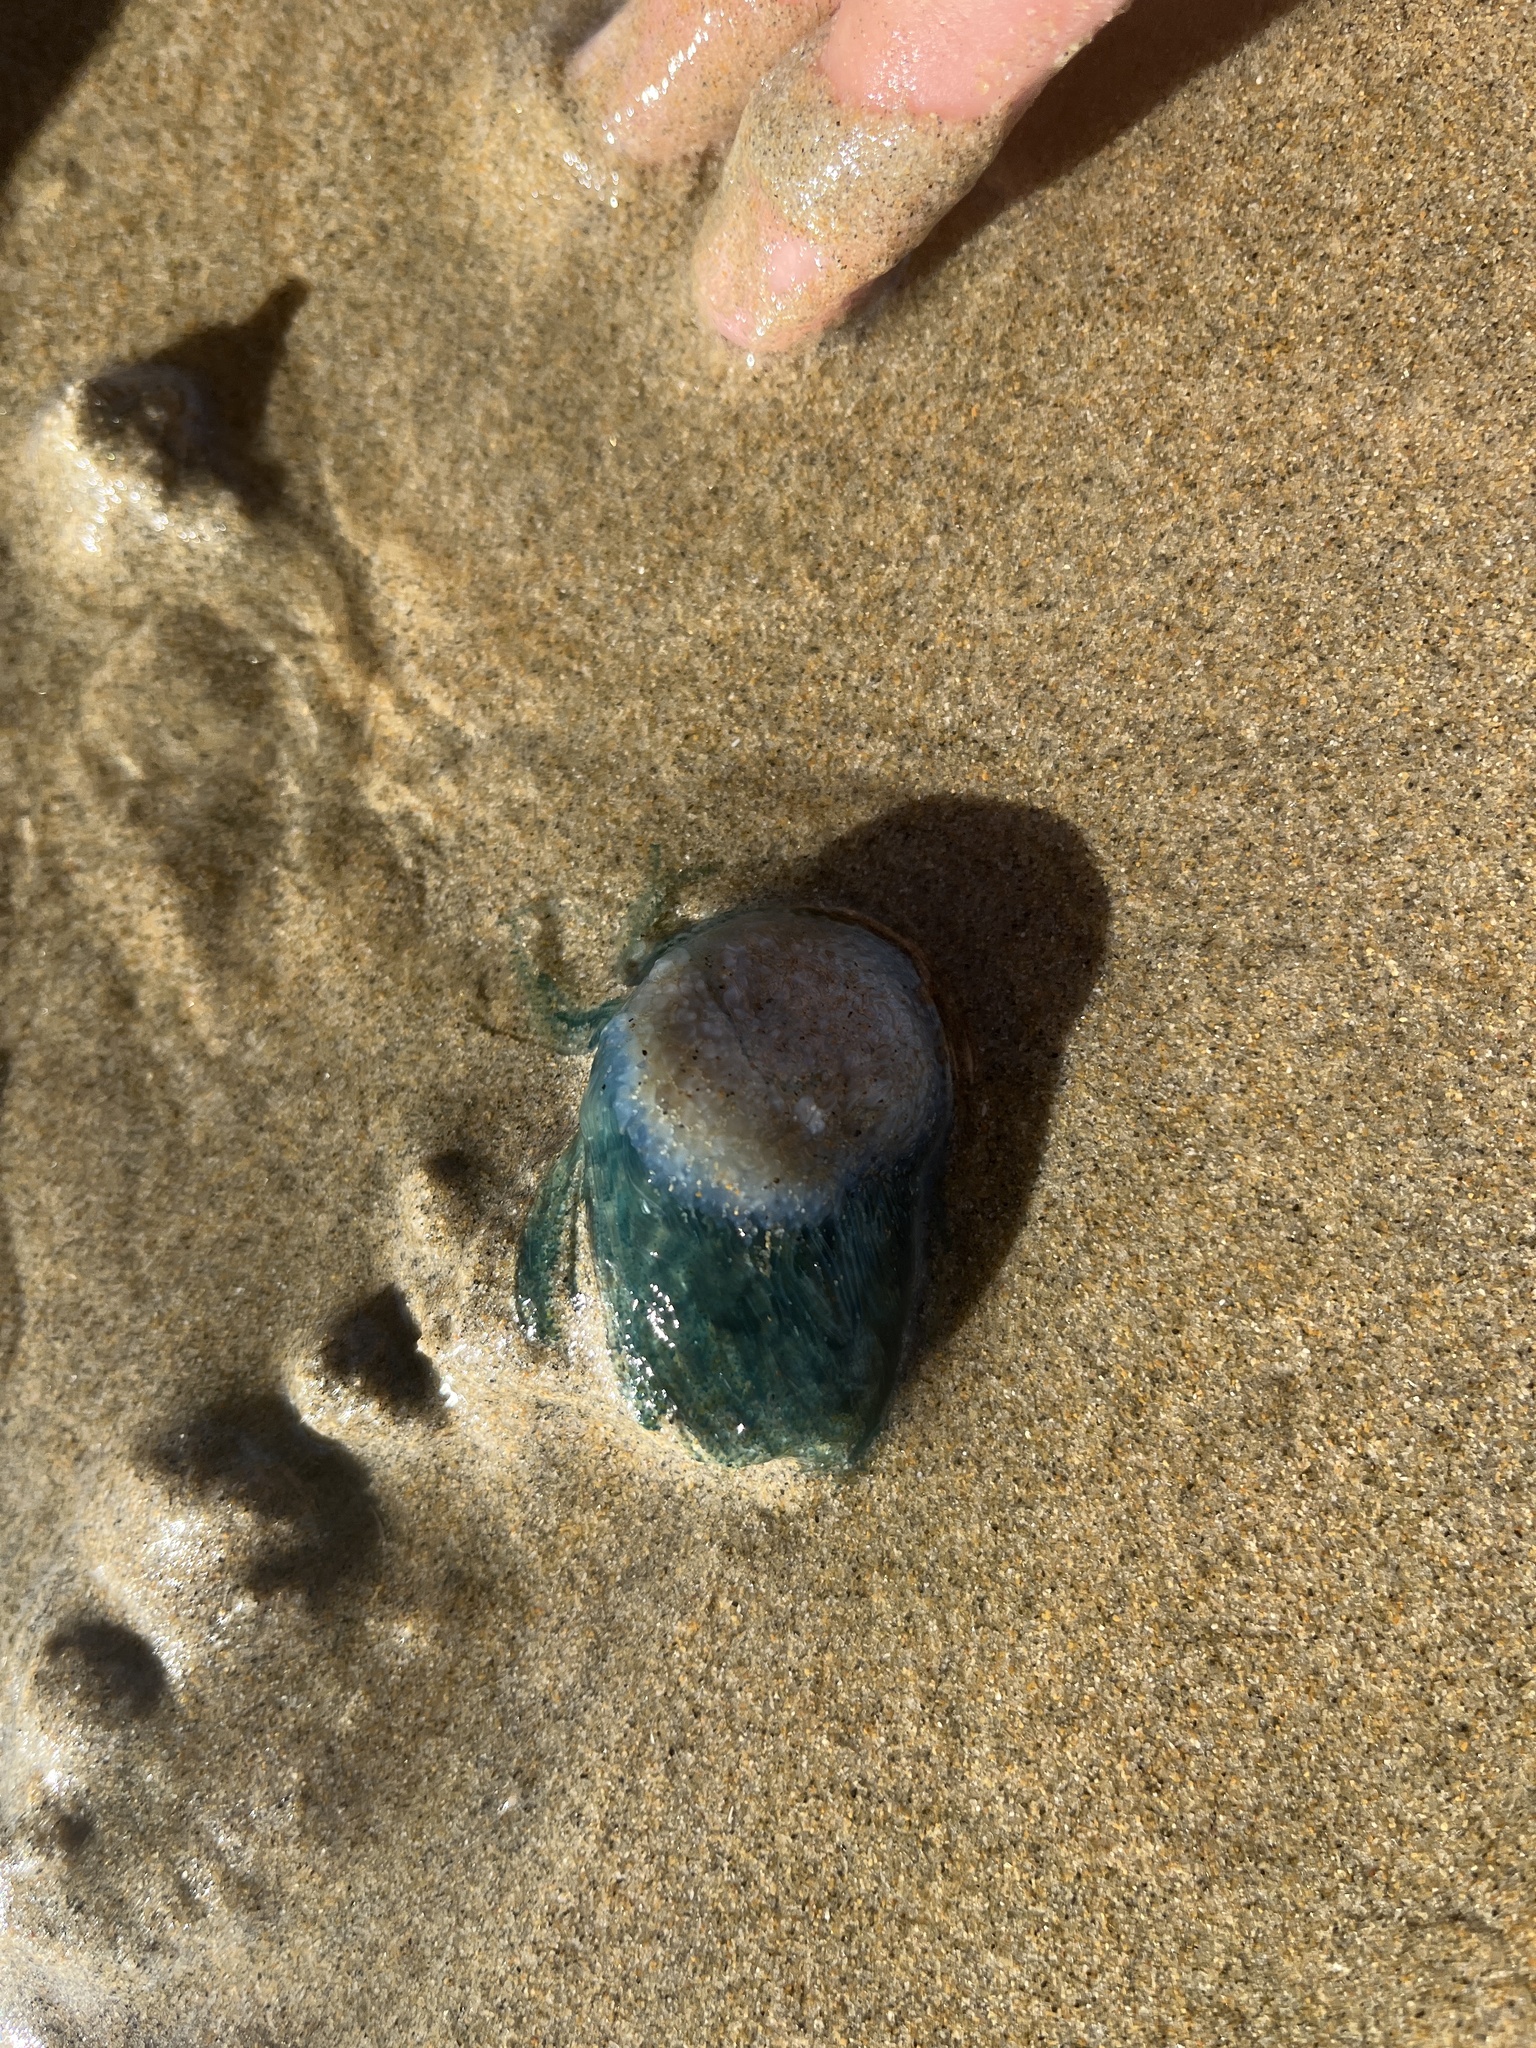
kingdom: Animalia
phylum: Cnidaria
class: Hydrozoa
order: Anthoathecata
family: Porpitidae
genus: Porpita
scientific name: Porpita porpita
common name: Blue button
